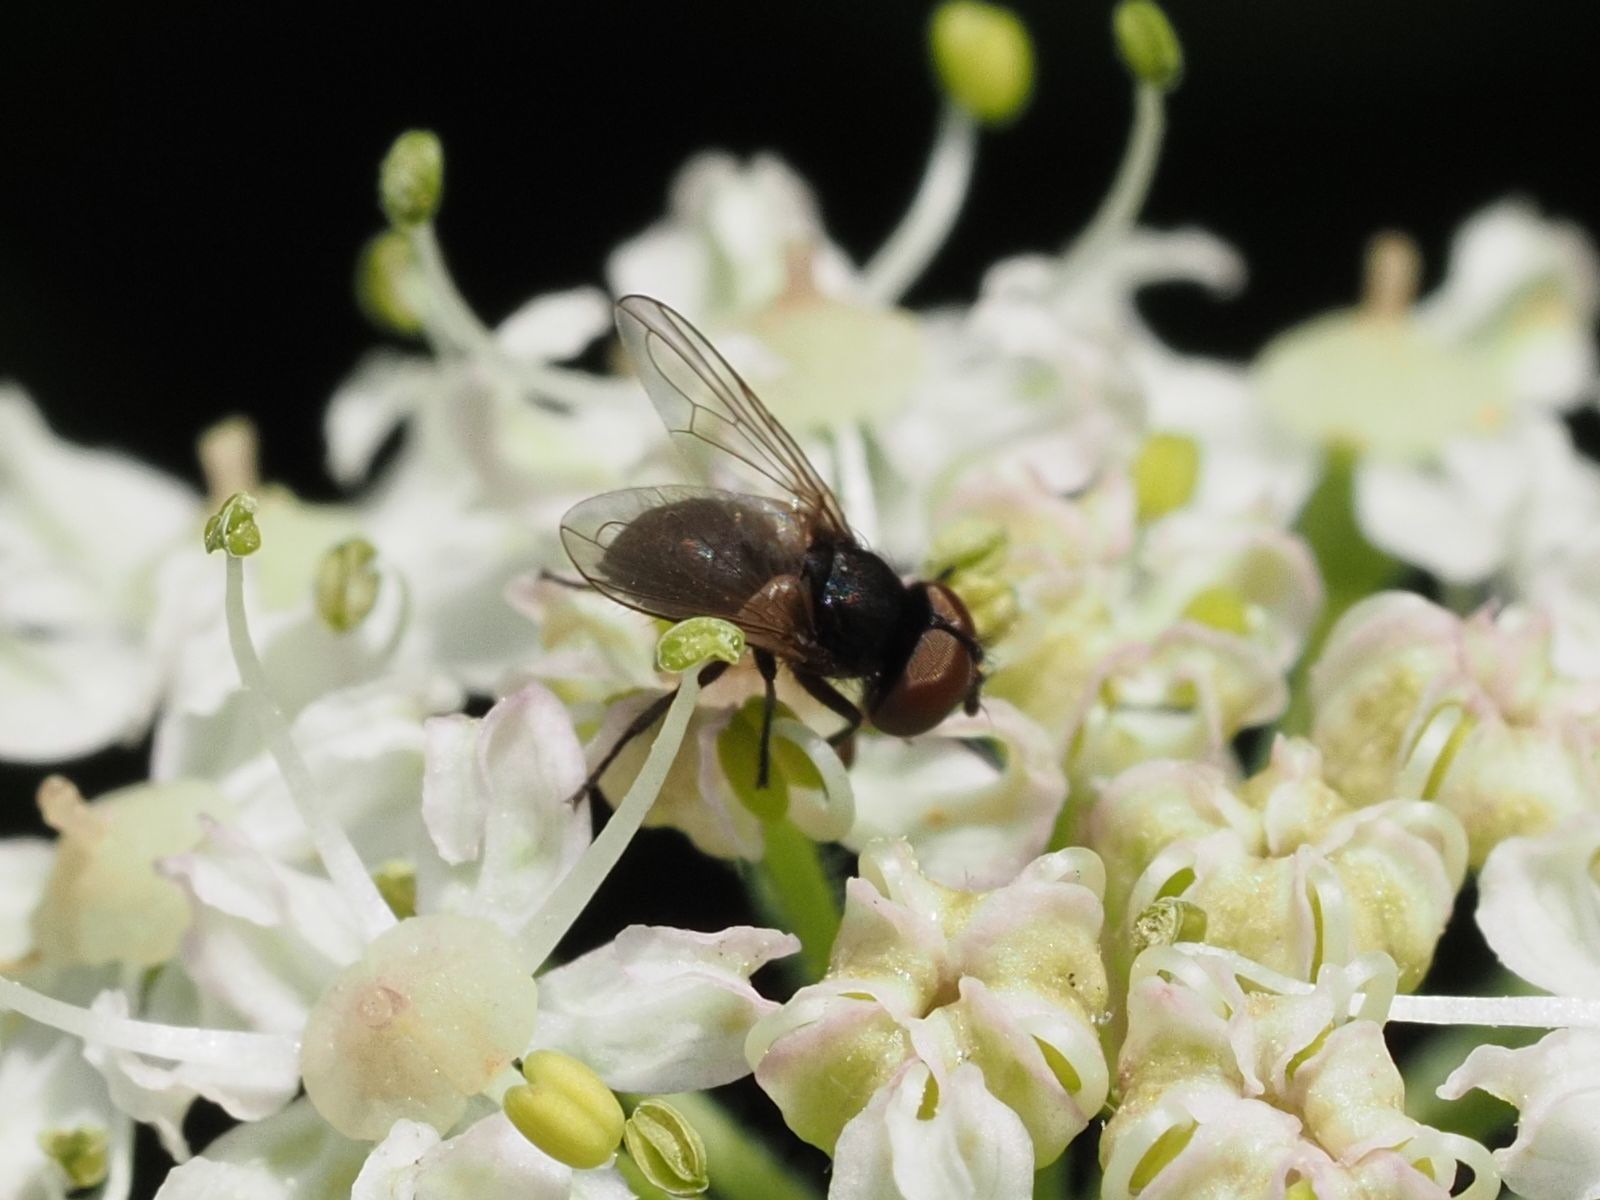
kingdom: Animalia
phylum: Arthropoda
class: Insecta
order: Diptera
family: Tachinidae
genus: Phasia
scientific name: Phasia barbifrons
